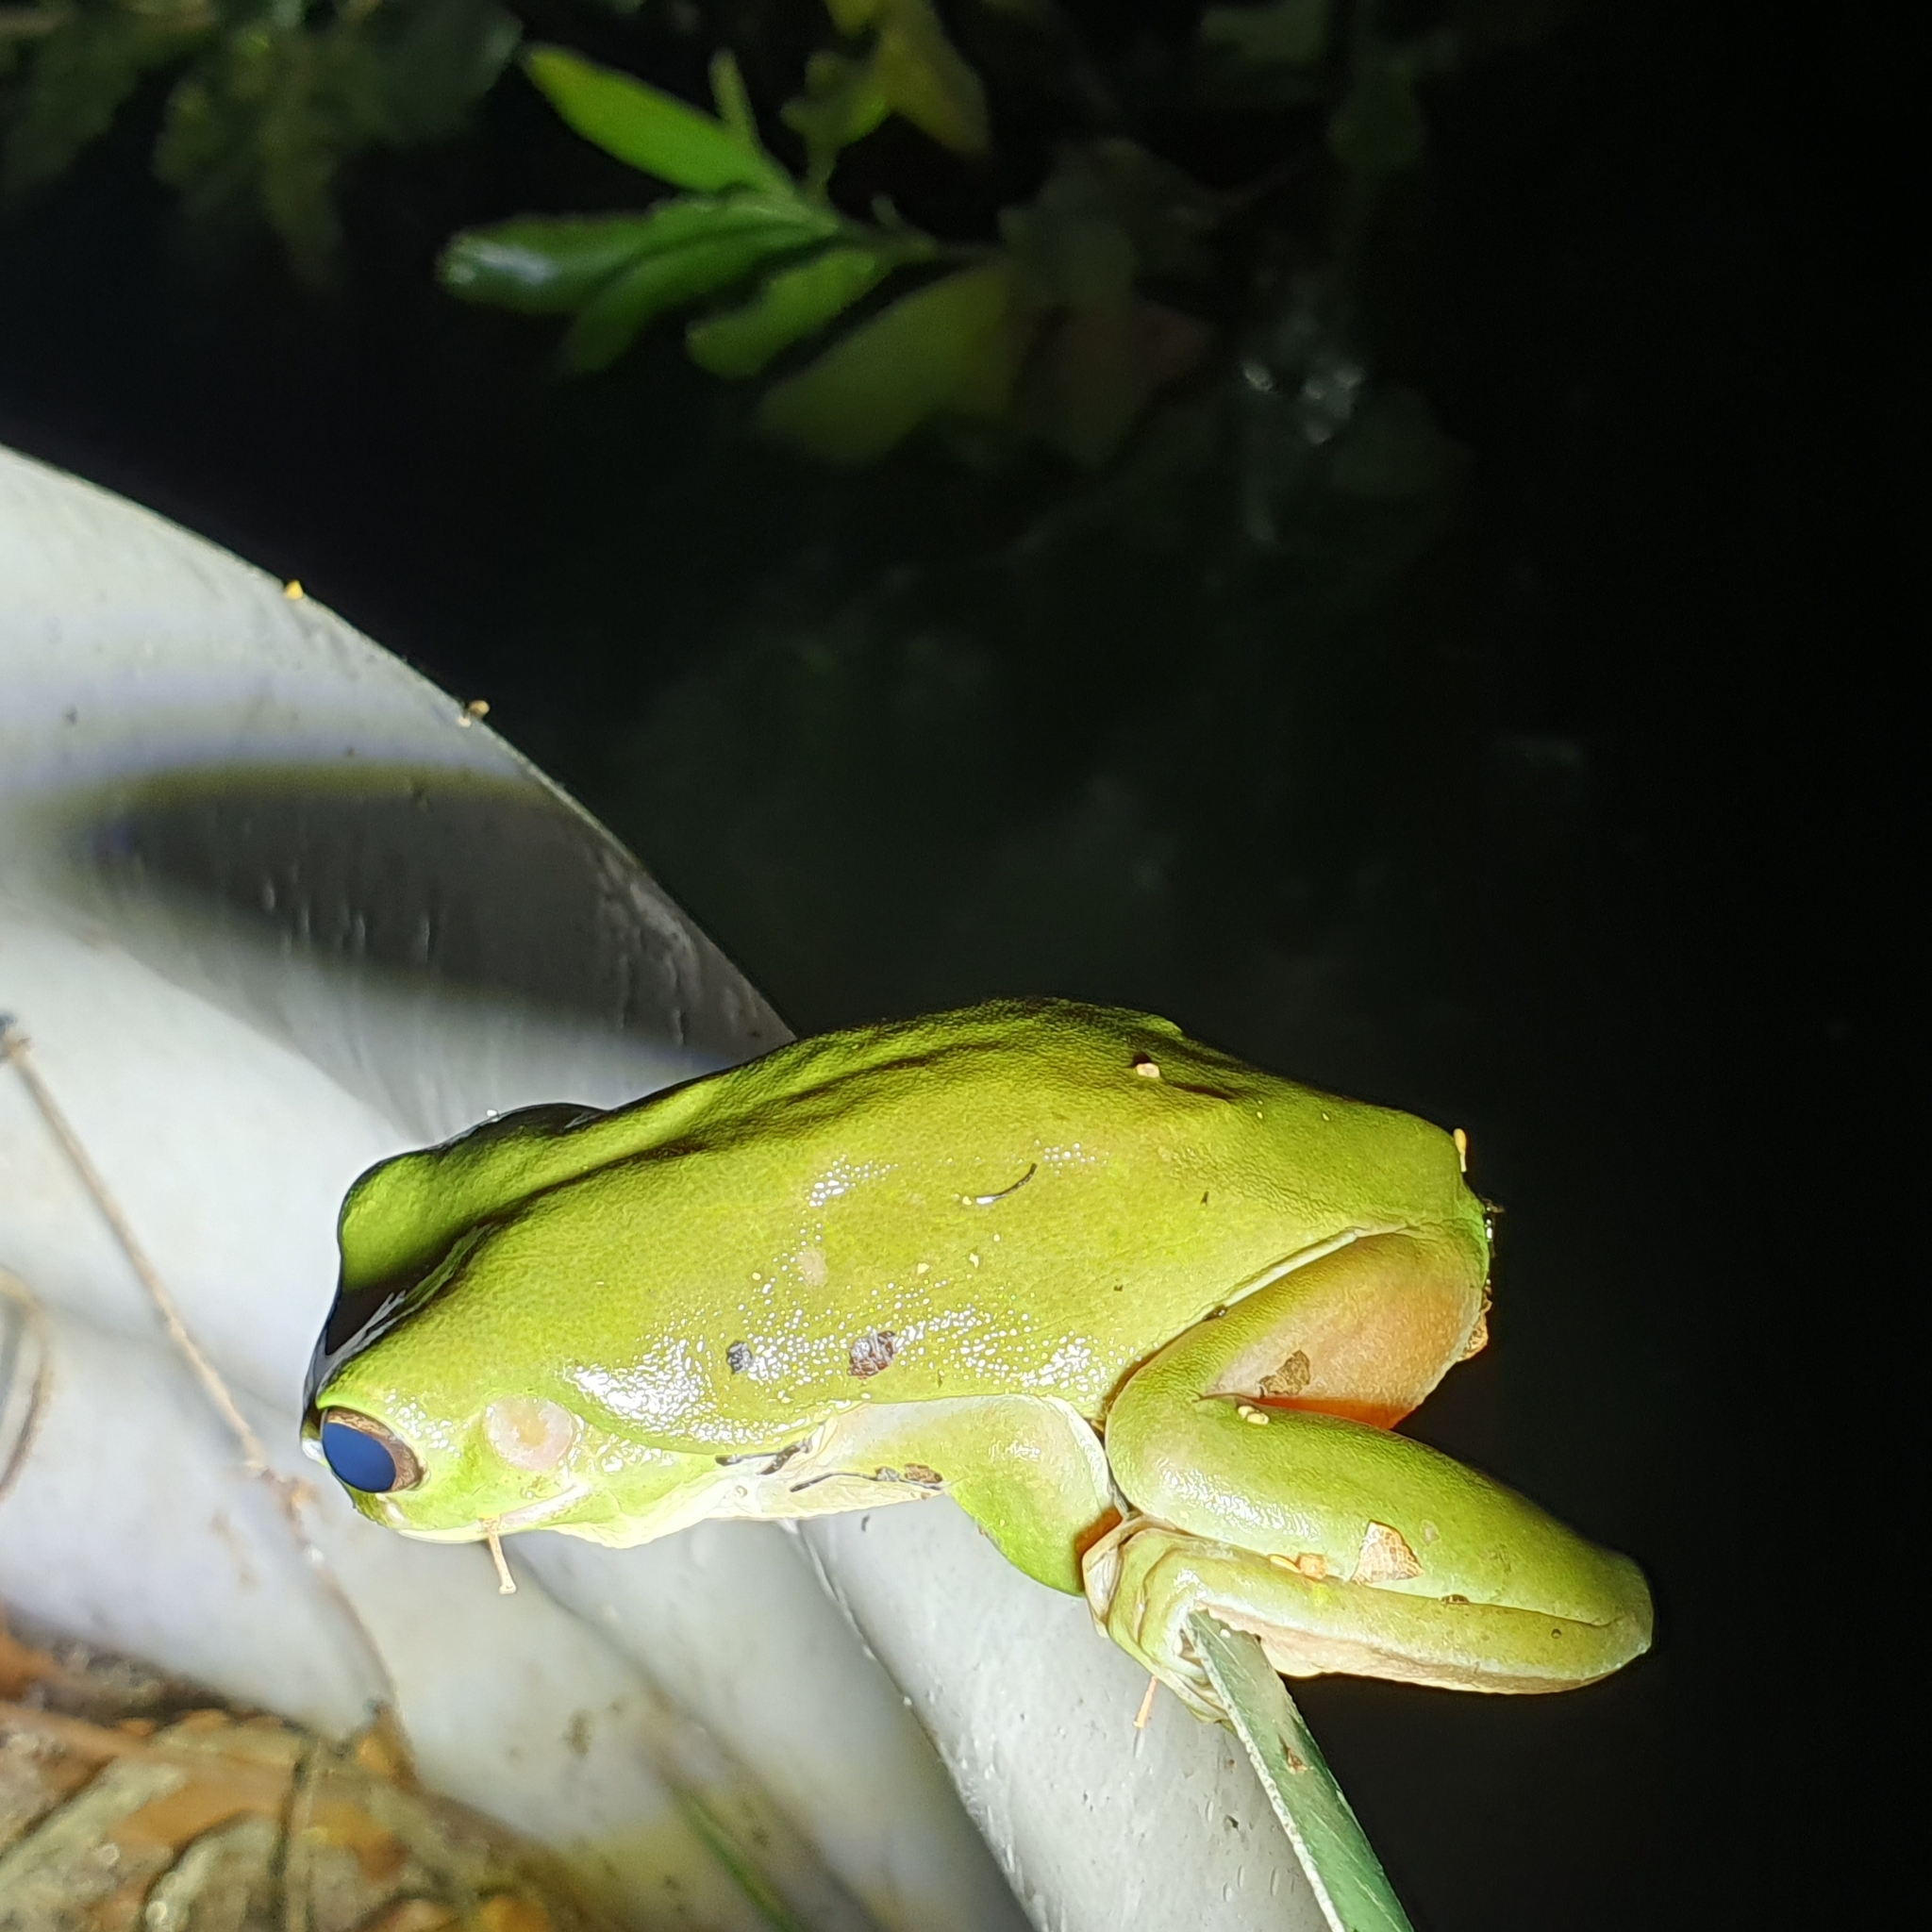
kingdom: Animalia
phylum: Chordata
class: Amphibia
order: Anura
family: Pelodryadidae
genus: Ranoidea
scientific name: Ranoidea caerulea
